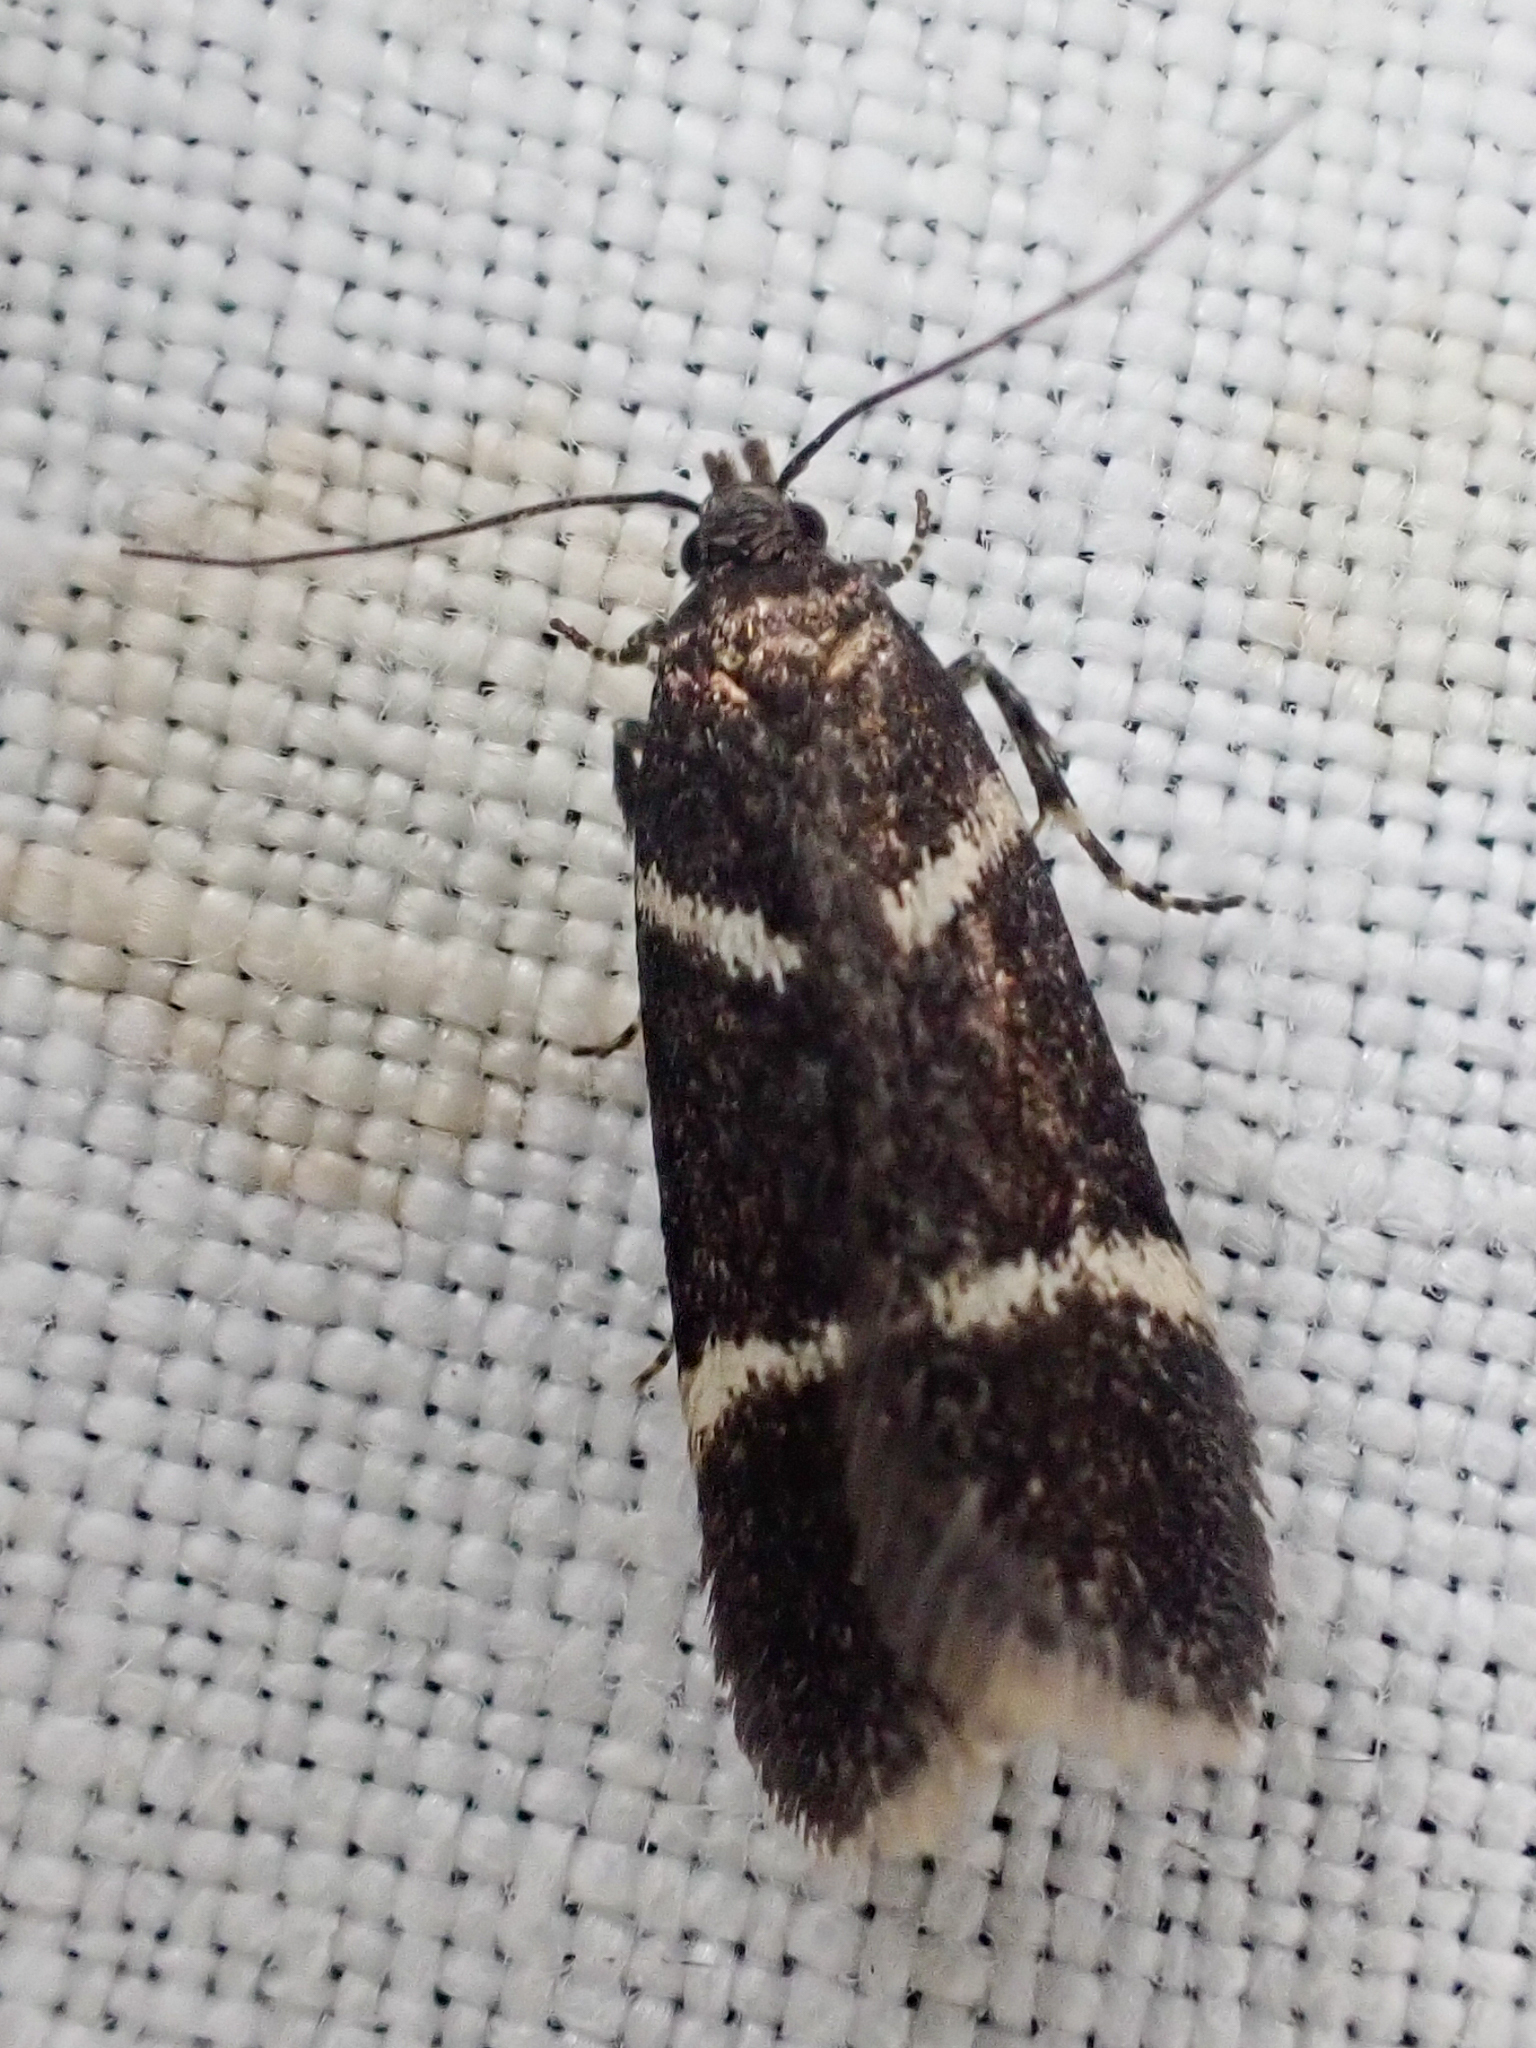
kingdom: Animalia
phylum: Arthropoda
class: Insecta
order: Lepidoptera
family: Gelechiidae
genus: Chionodes
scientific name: Chionodes lugubrella
